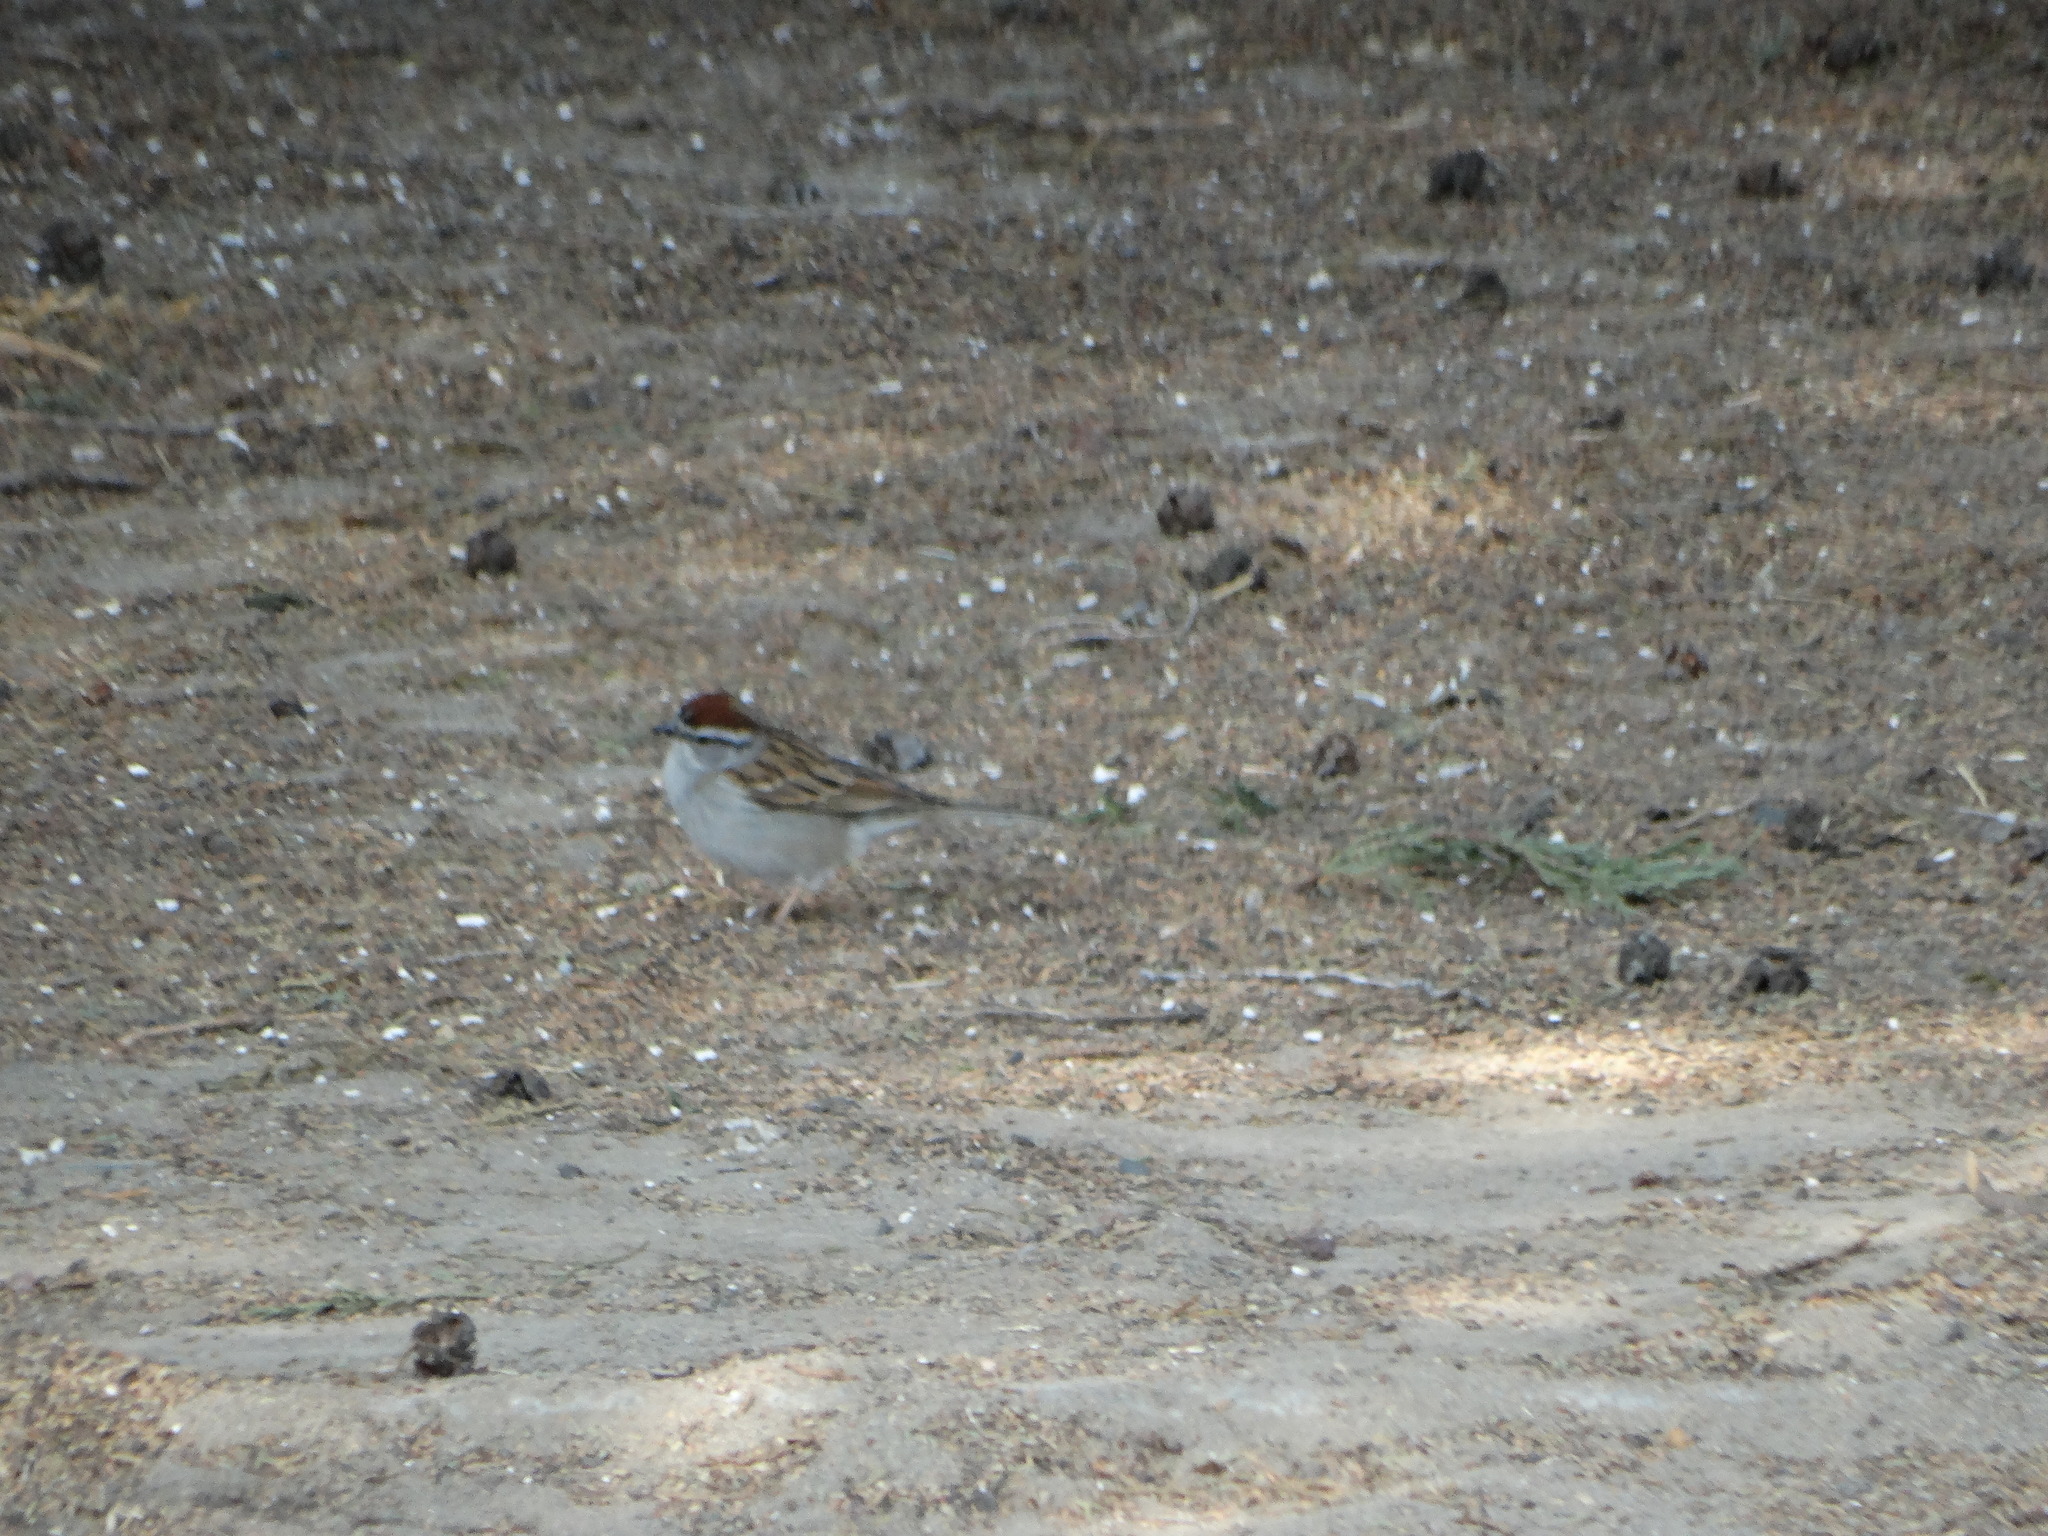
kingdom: Animalia
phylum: Chordata
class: Aves
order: Passeriformes
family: Passerellidae
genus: Spizella
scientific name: Spizella passerina
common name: Chipping sparrow
